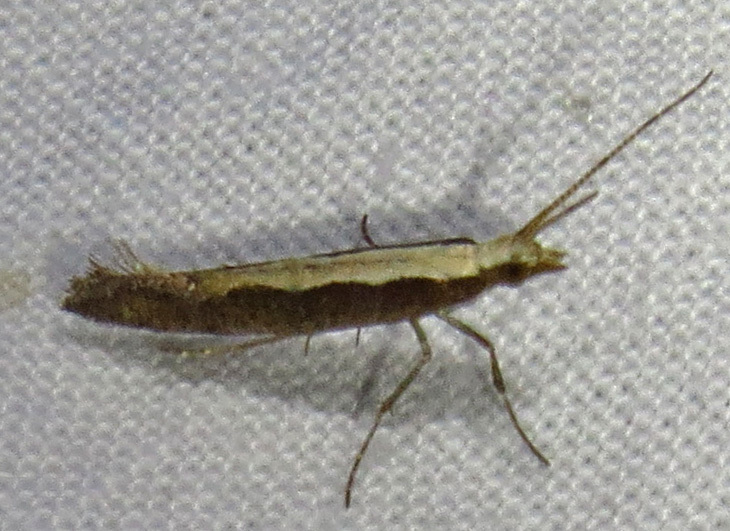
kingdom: Animalia
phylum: Arthropoda
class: Insecta
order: Lepidoptera
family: Plutellidae
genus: Plutella
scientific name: Plutella xylostella
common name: Diamond-back moth
